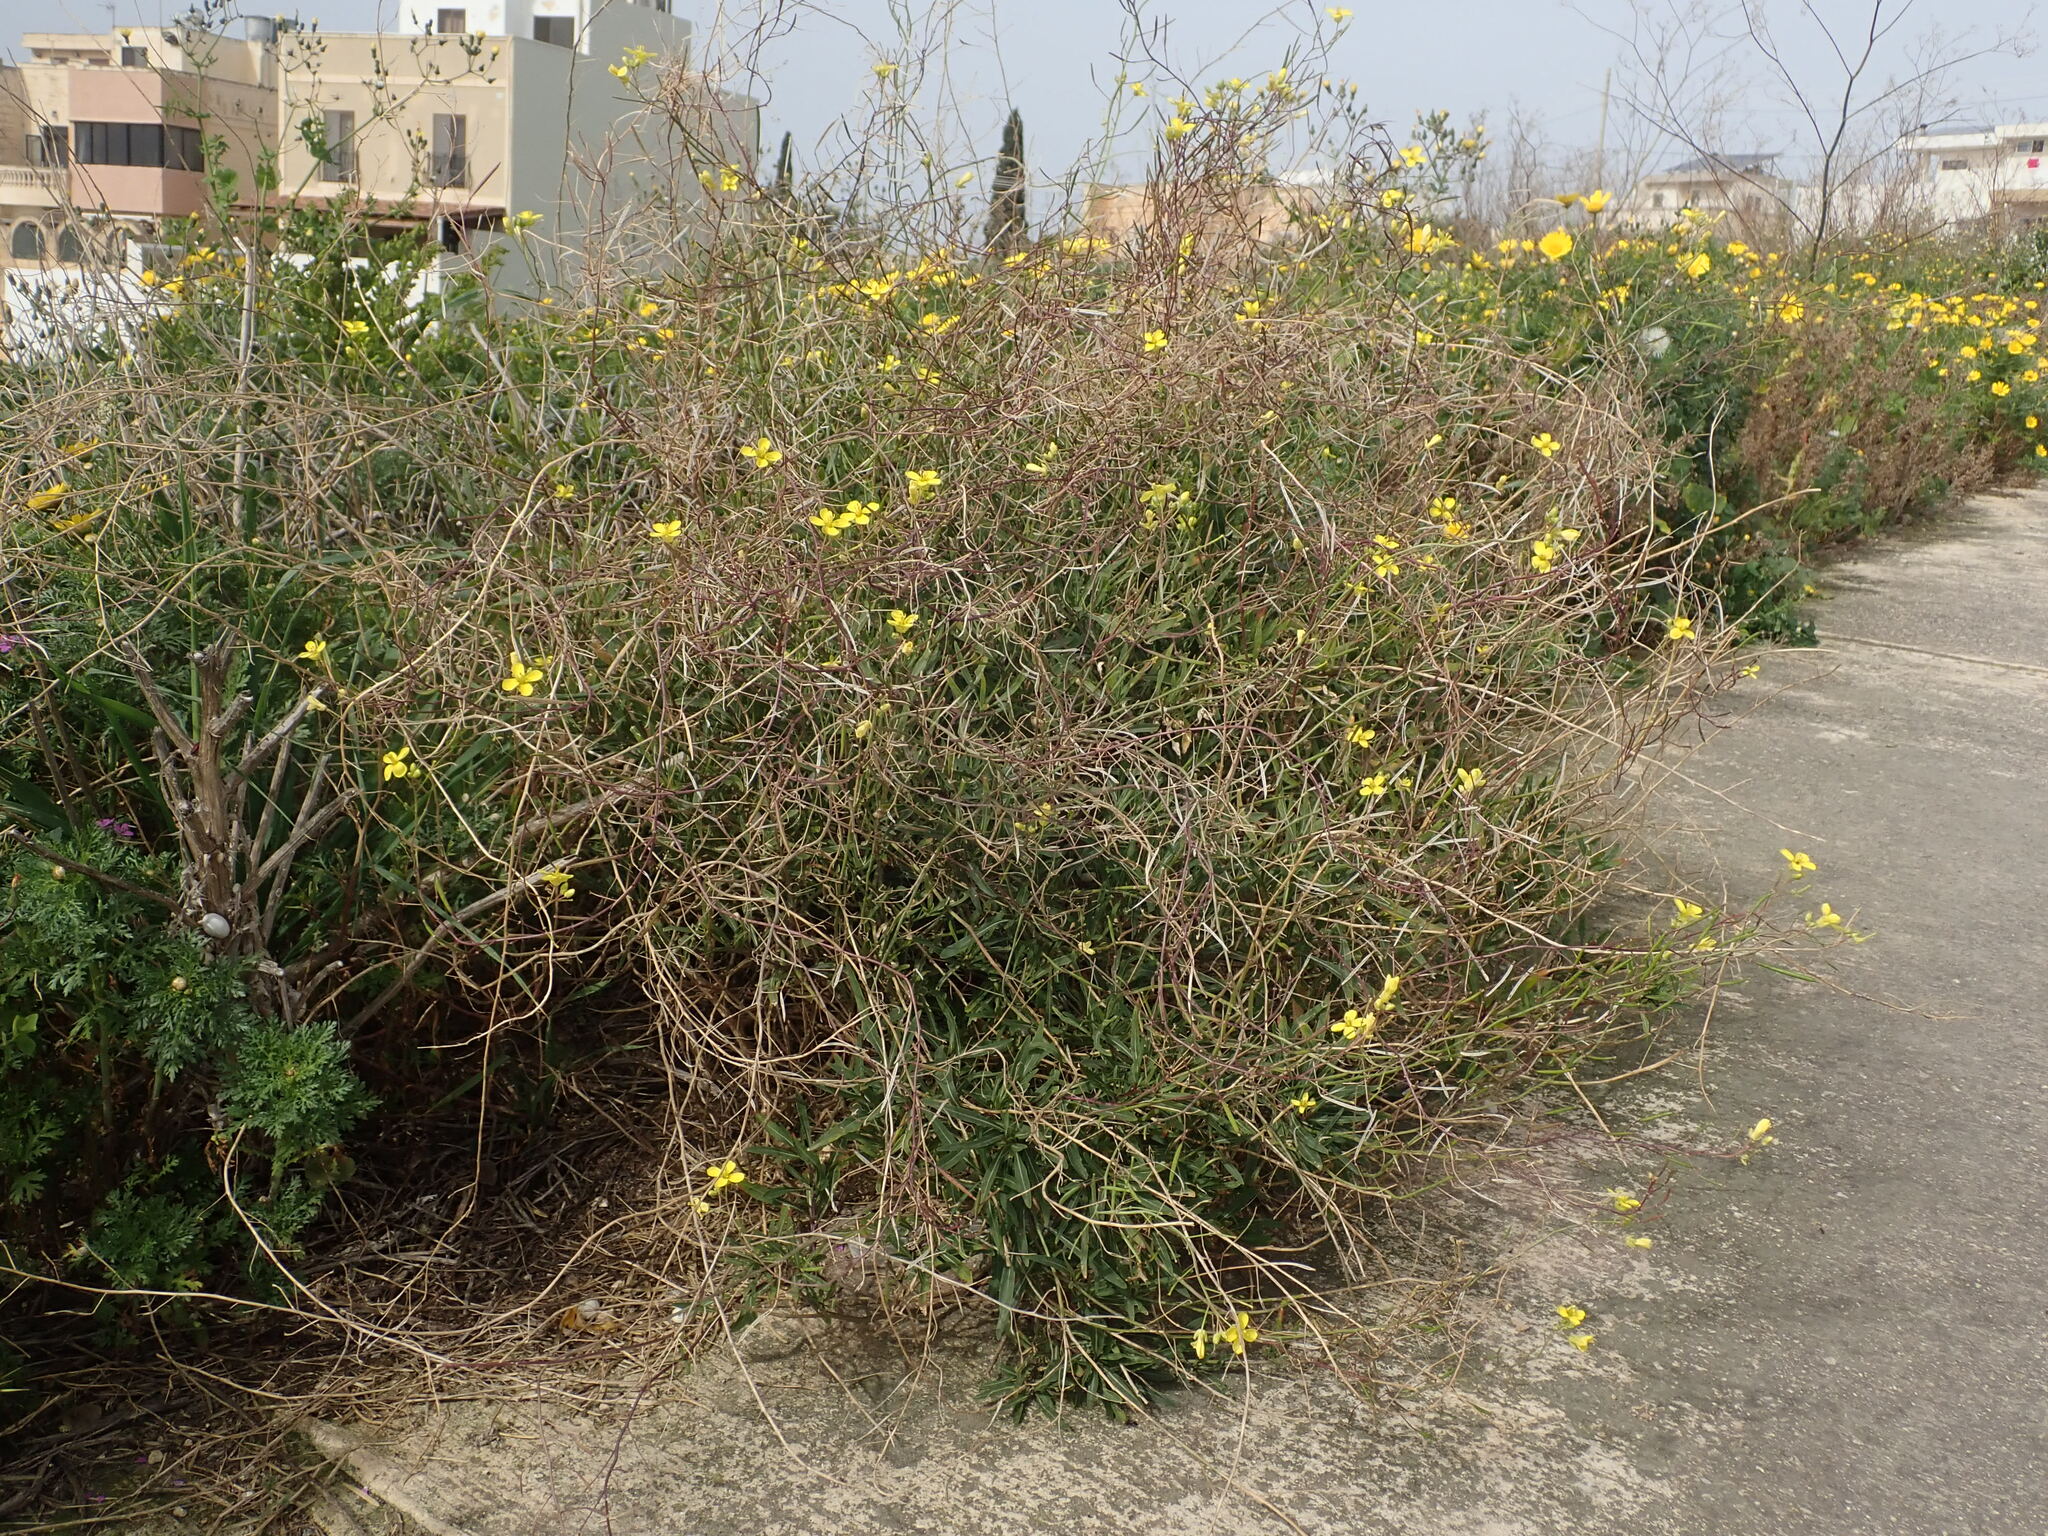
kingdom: Plantae
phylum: Tracheophyta
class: Magnoliopsida
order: Brassicales
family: Brassicaceae
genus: Diplotaxis
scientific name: Diplotaxis tenuifolia
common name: Perennial wall-rocket
